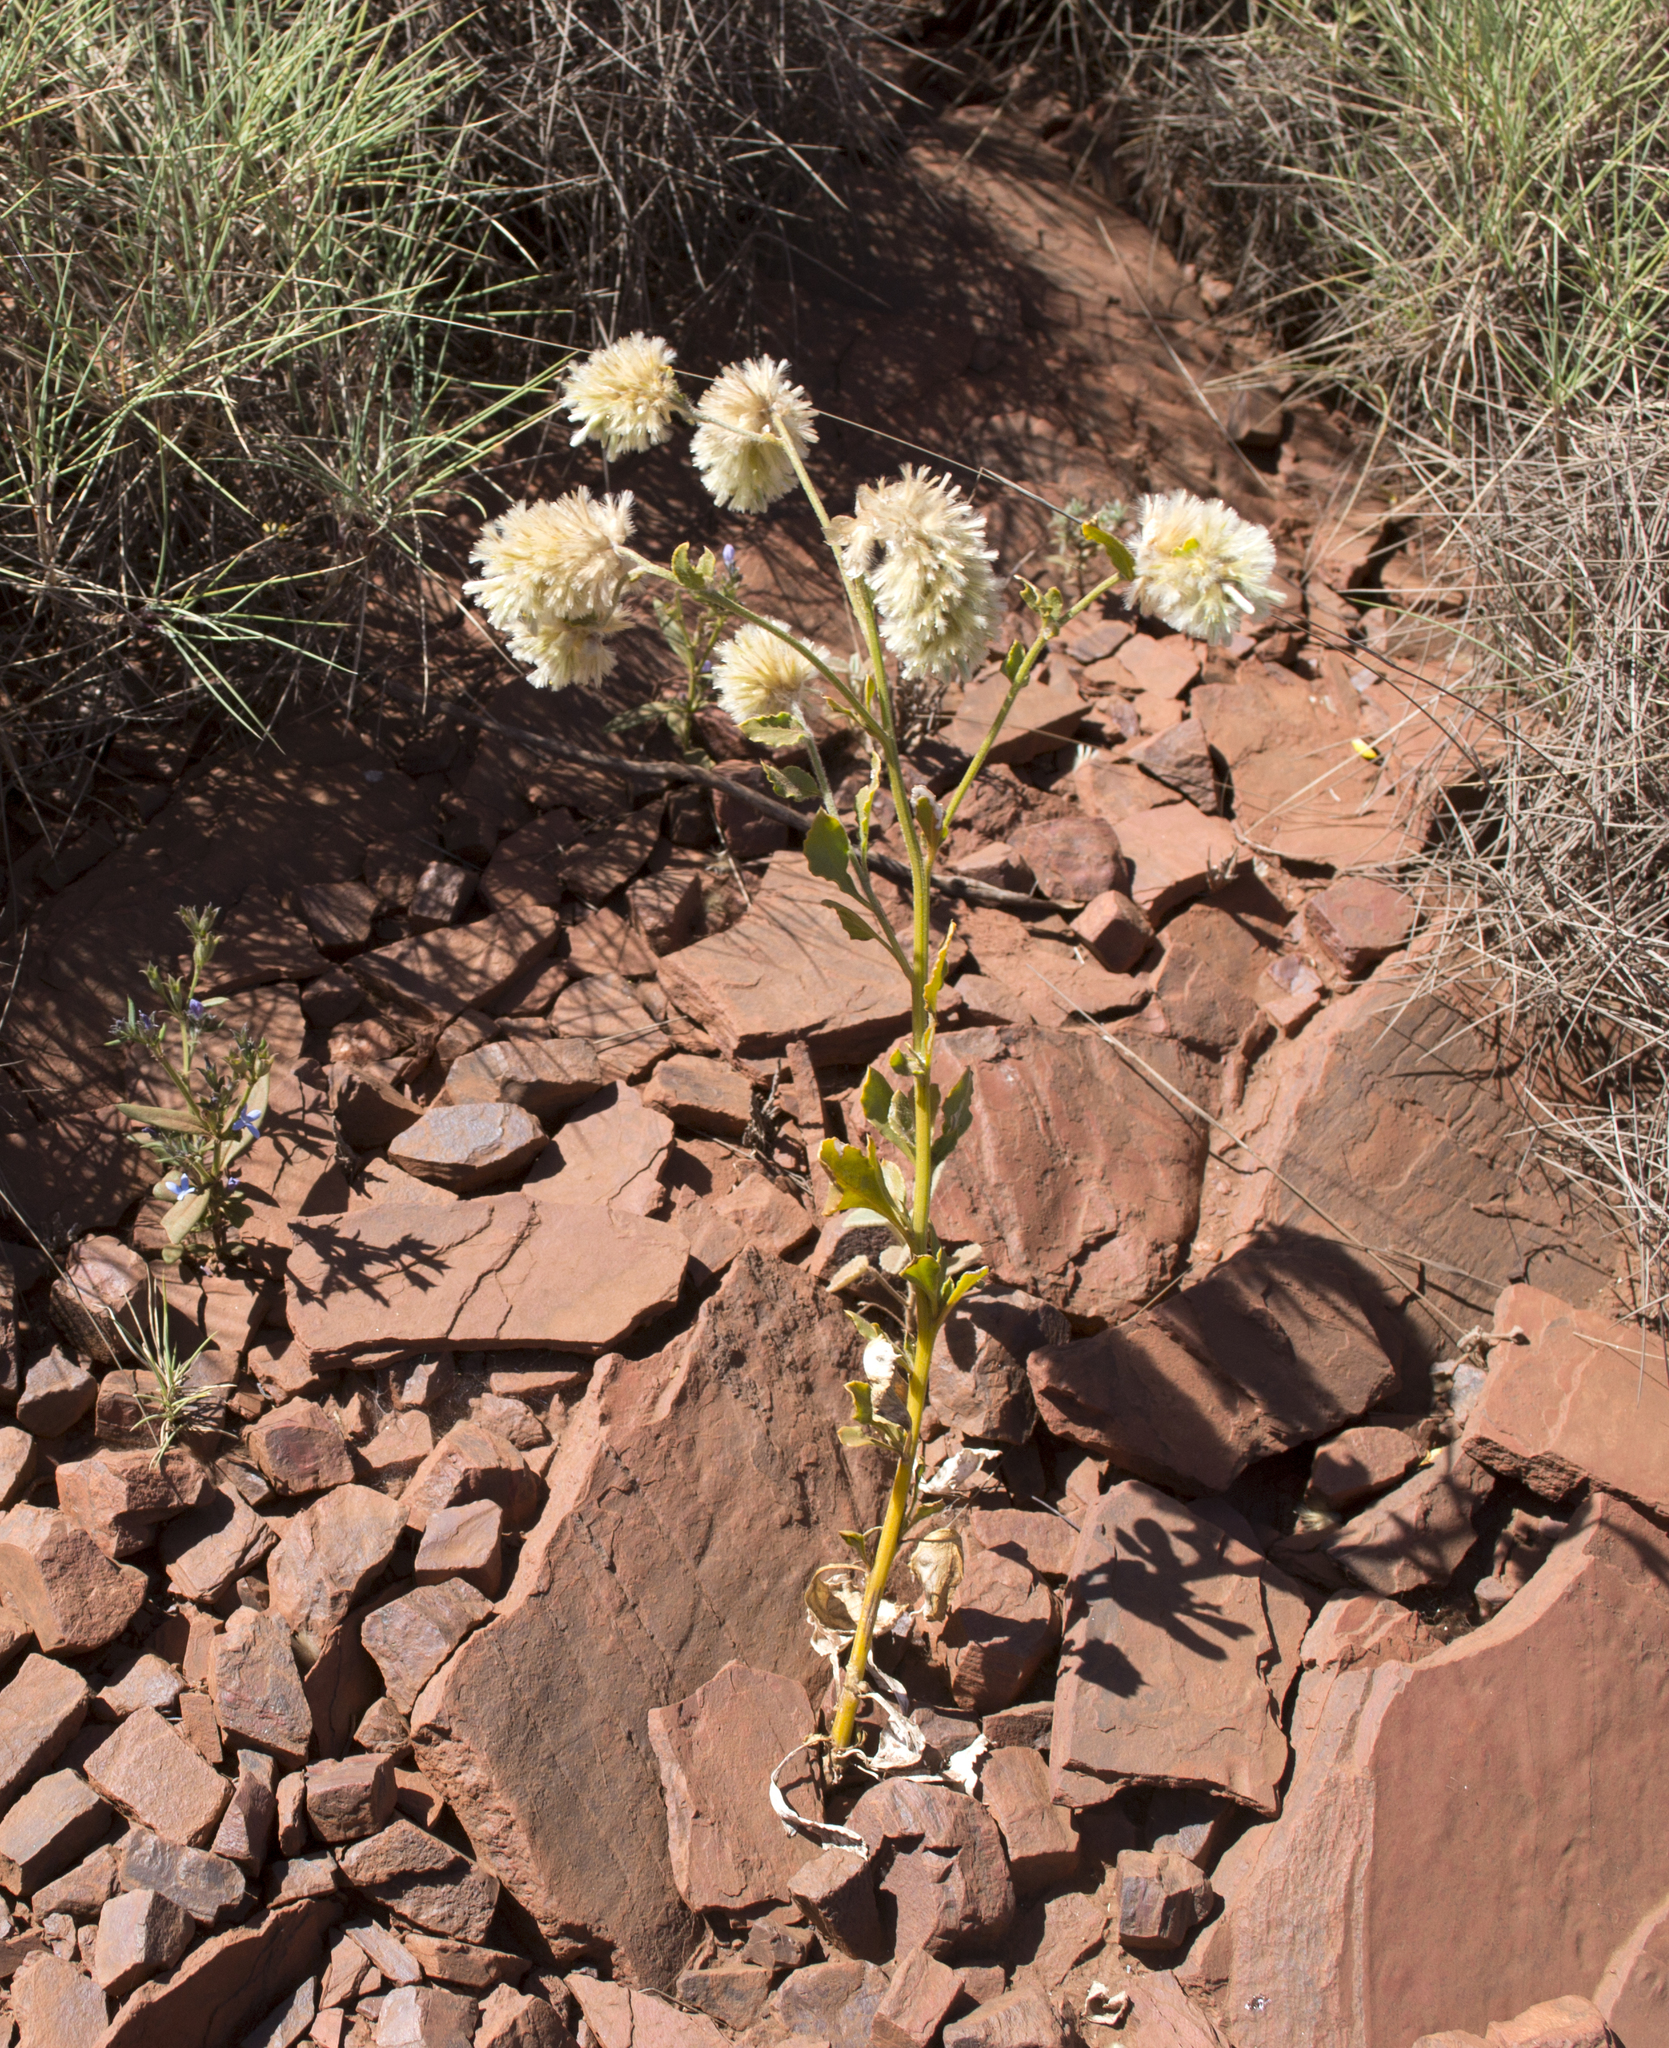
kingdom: Plantae
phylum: Tracheophyta
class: Magnoliopsida
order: Caryophyllales
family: Amaranthaceae
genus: Ptilotus
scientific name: Ptilotus auriculifolius
